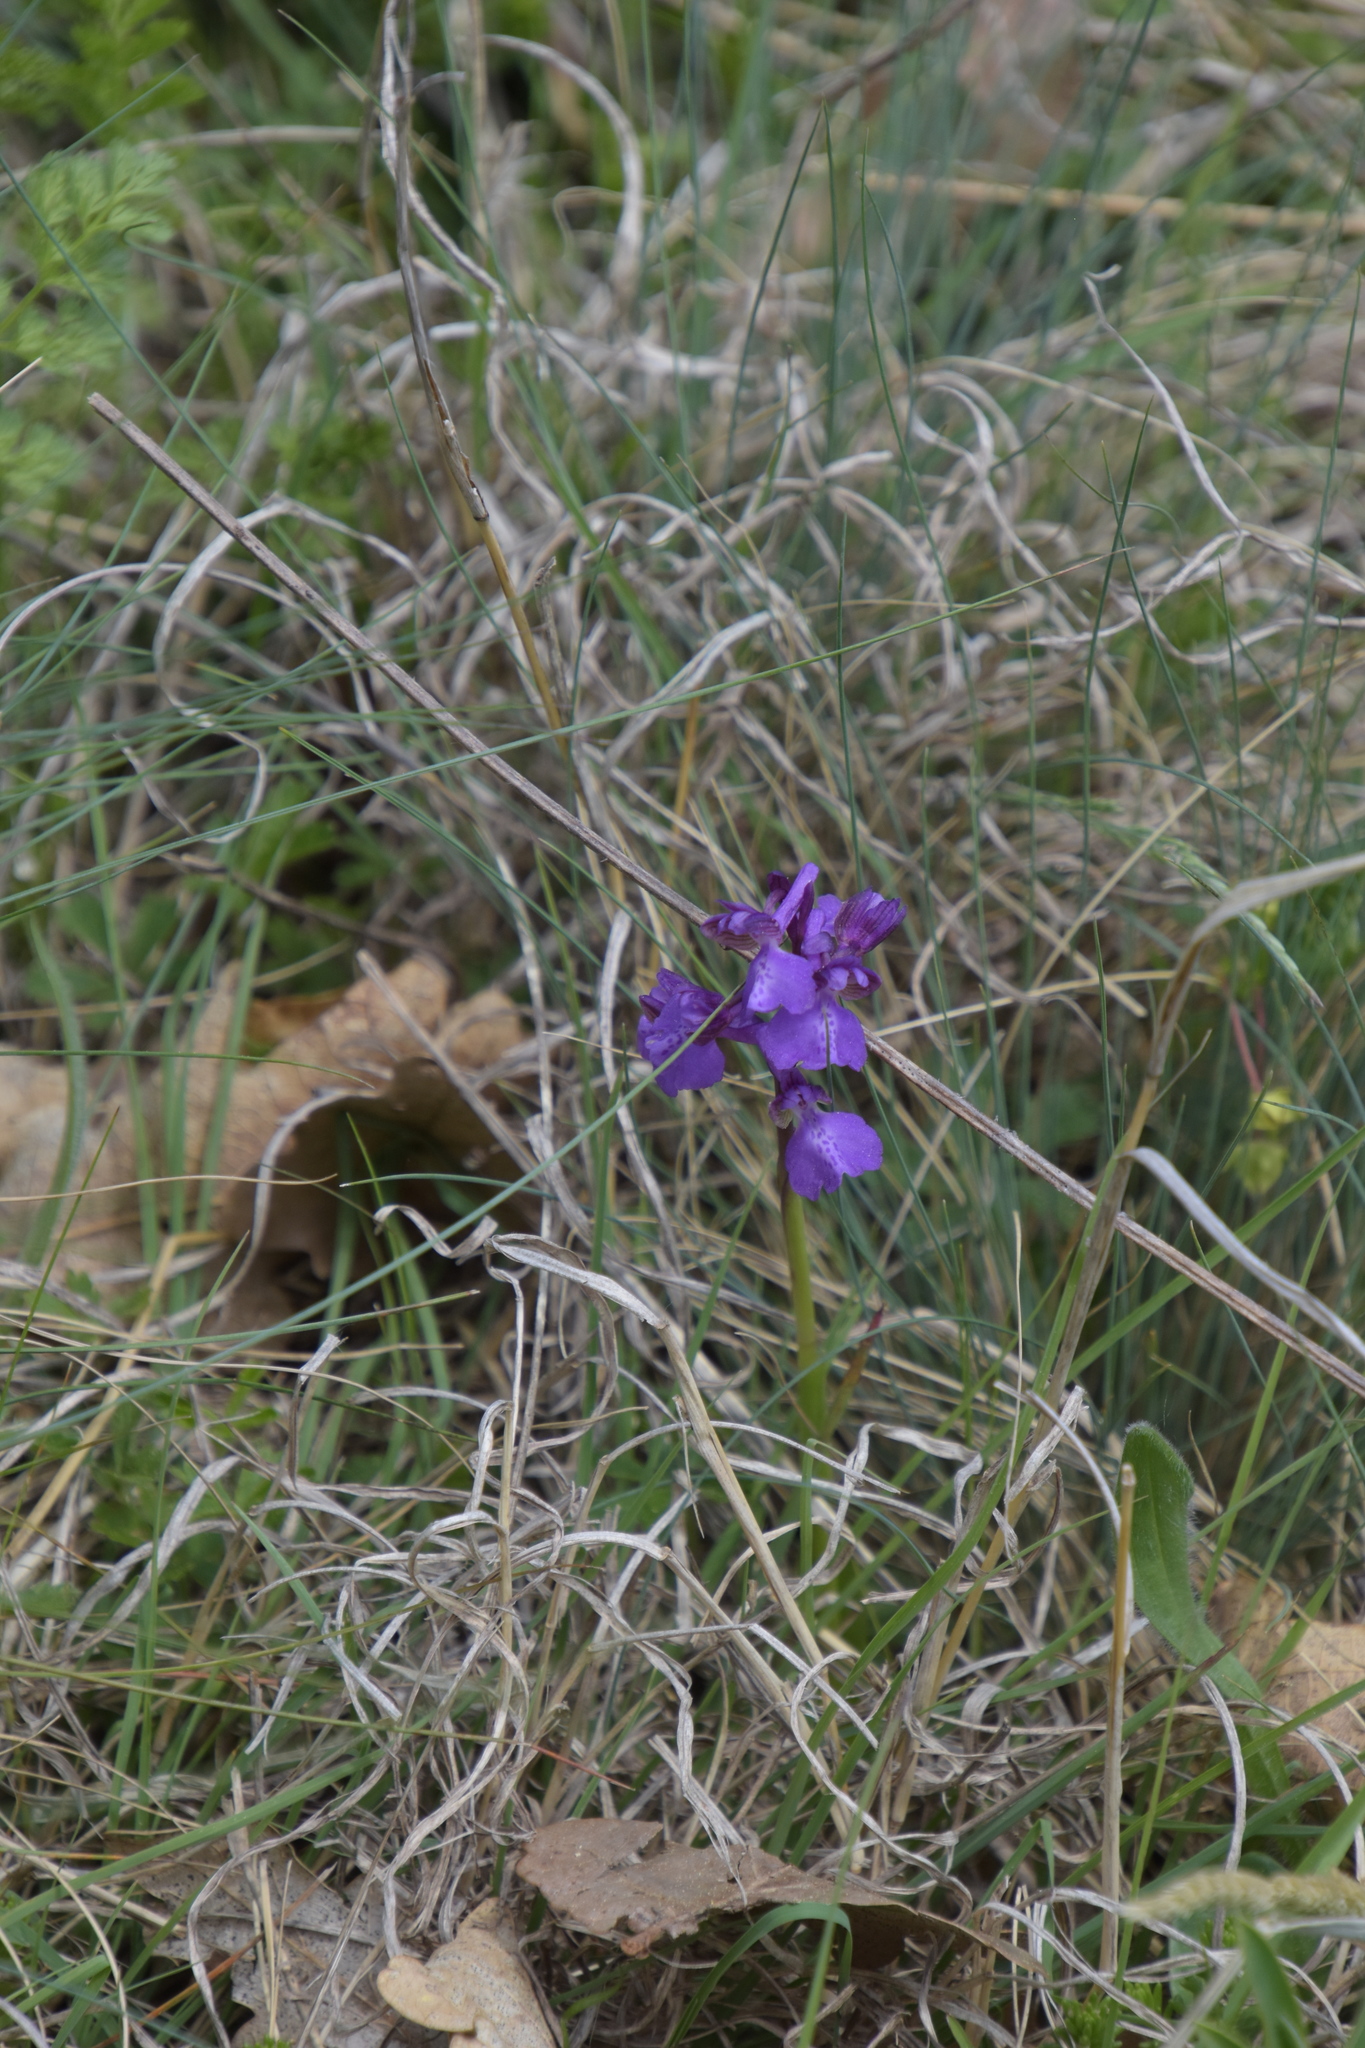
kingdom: Plantae
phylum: Tracheophyta
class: Liliopsida
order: Asparagales
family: Orchidaceae
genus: Anacamptis
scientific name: Anacamptis morio
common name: Green-winged orchid
